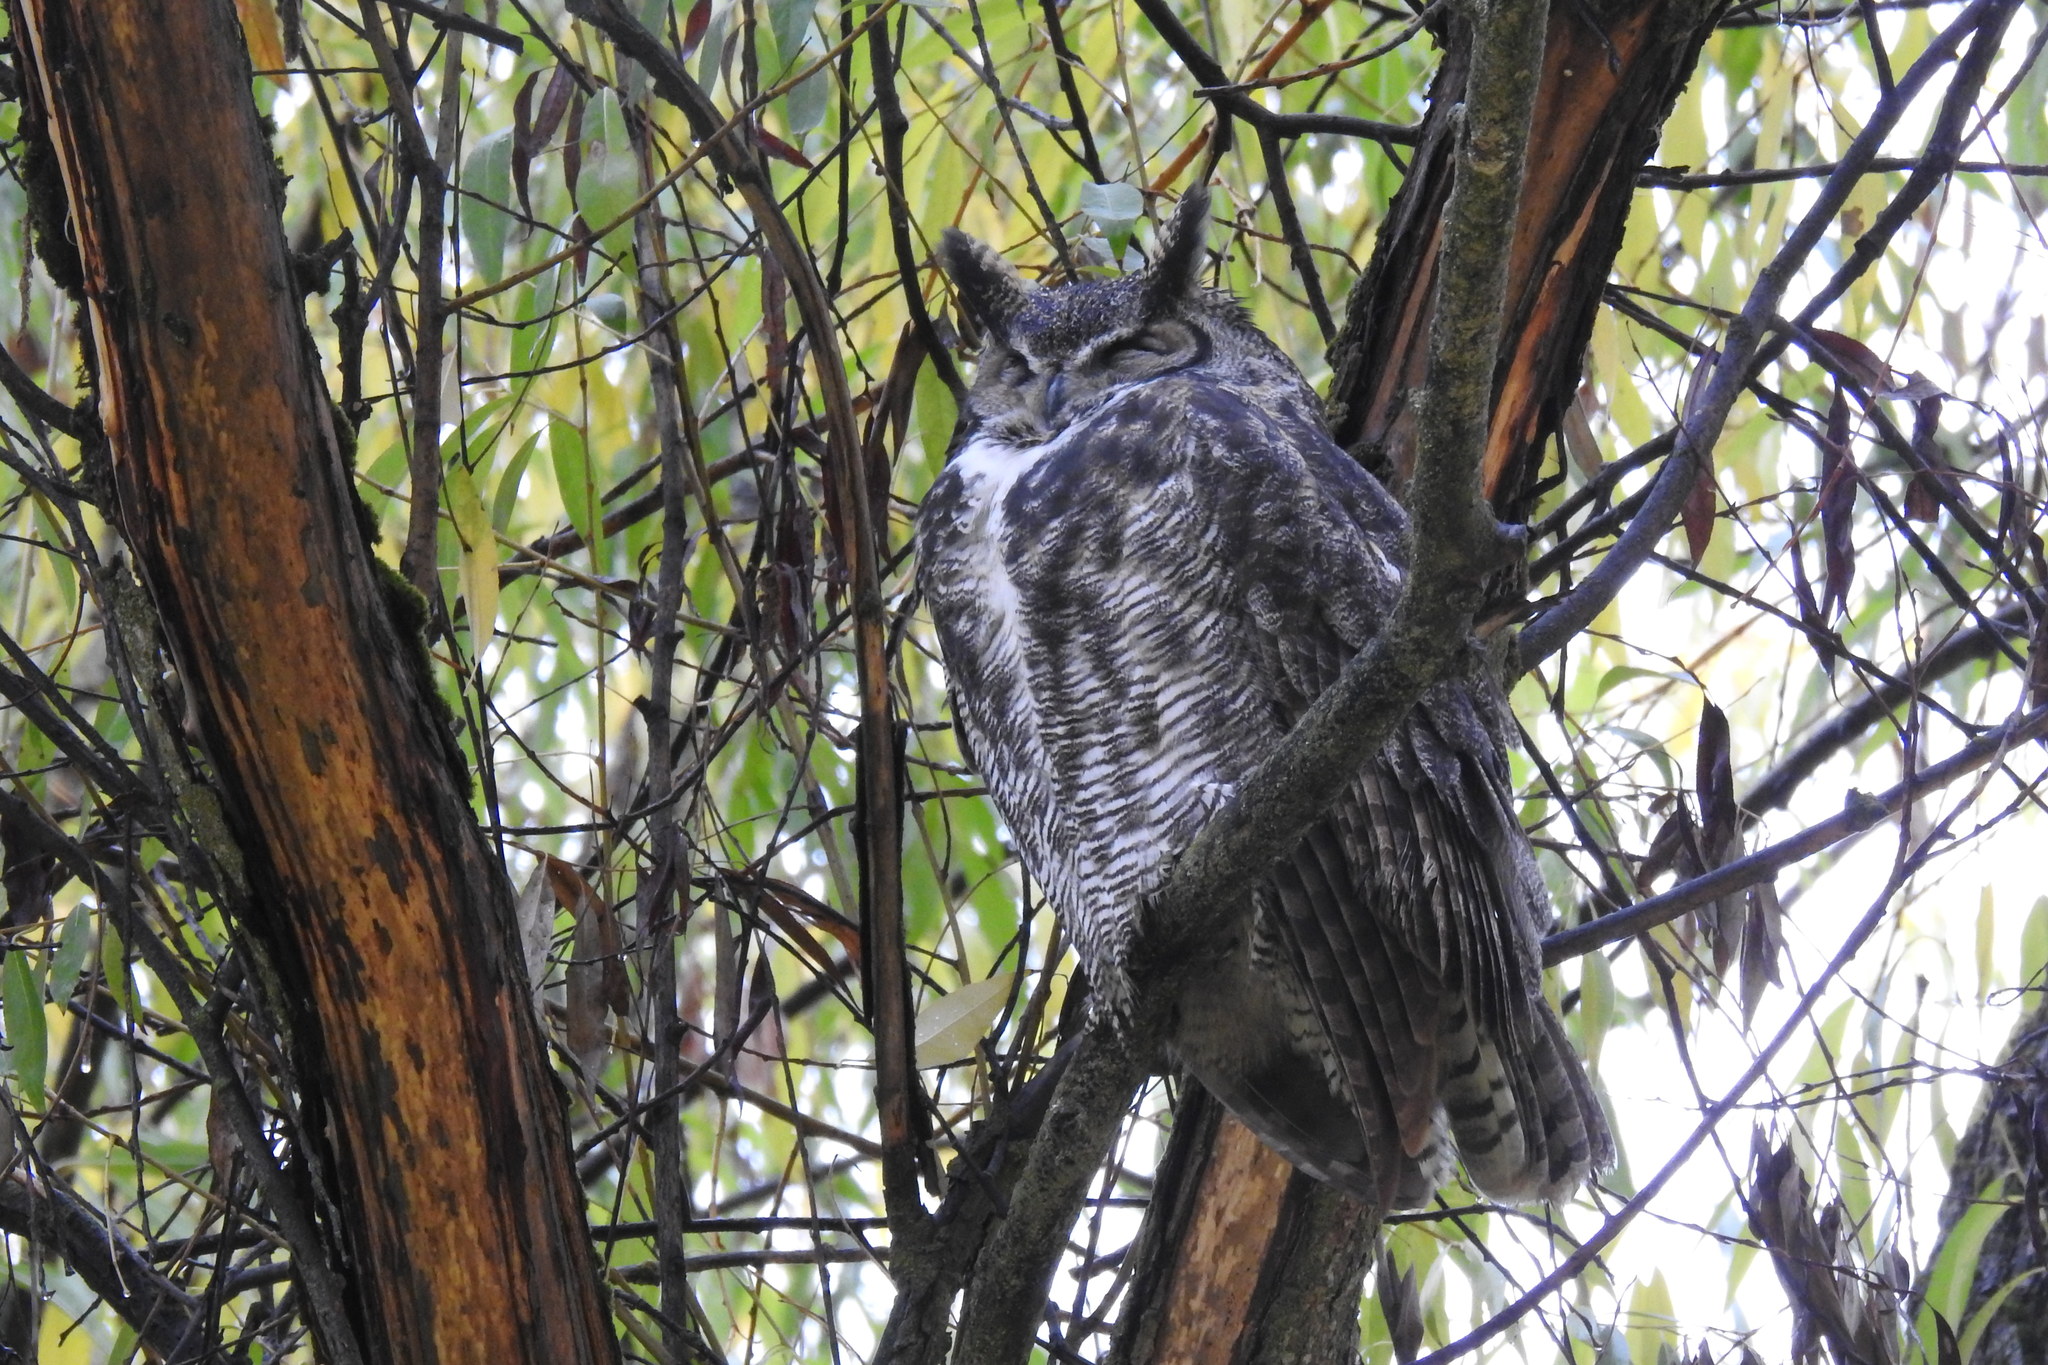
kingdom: Animalia
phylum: Chordata
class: Aves
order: Strigiformes
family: Strigidae
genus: Bubo
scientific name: Bubo virginianus
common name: Great horned owl
